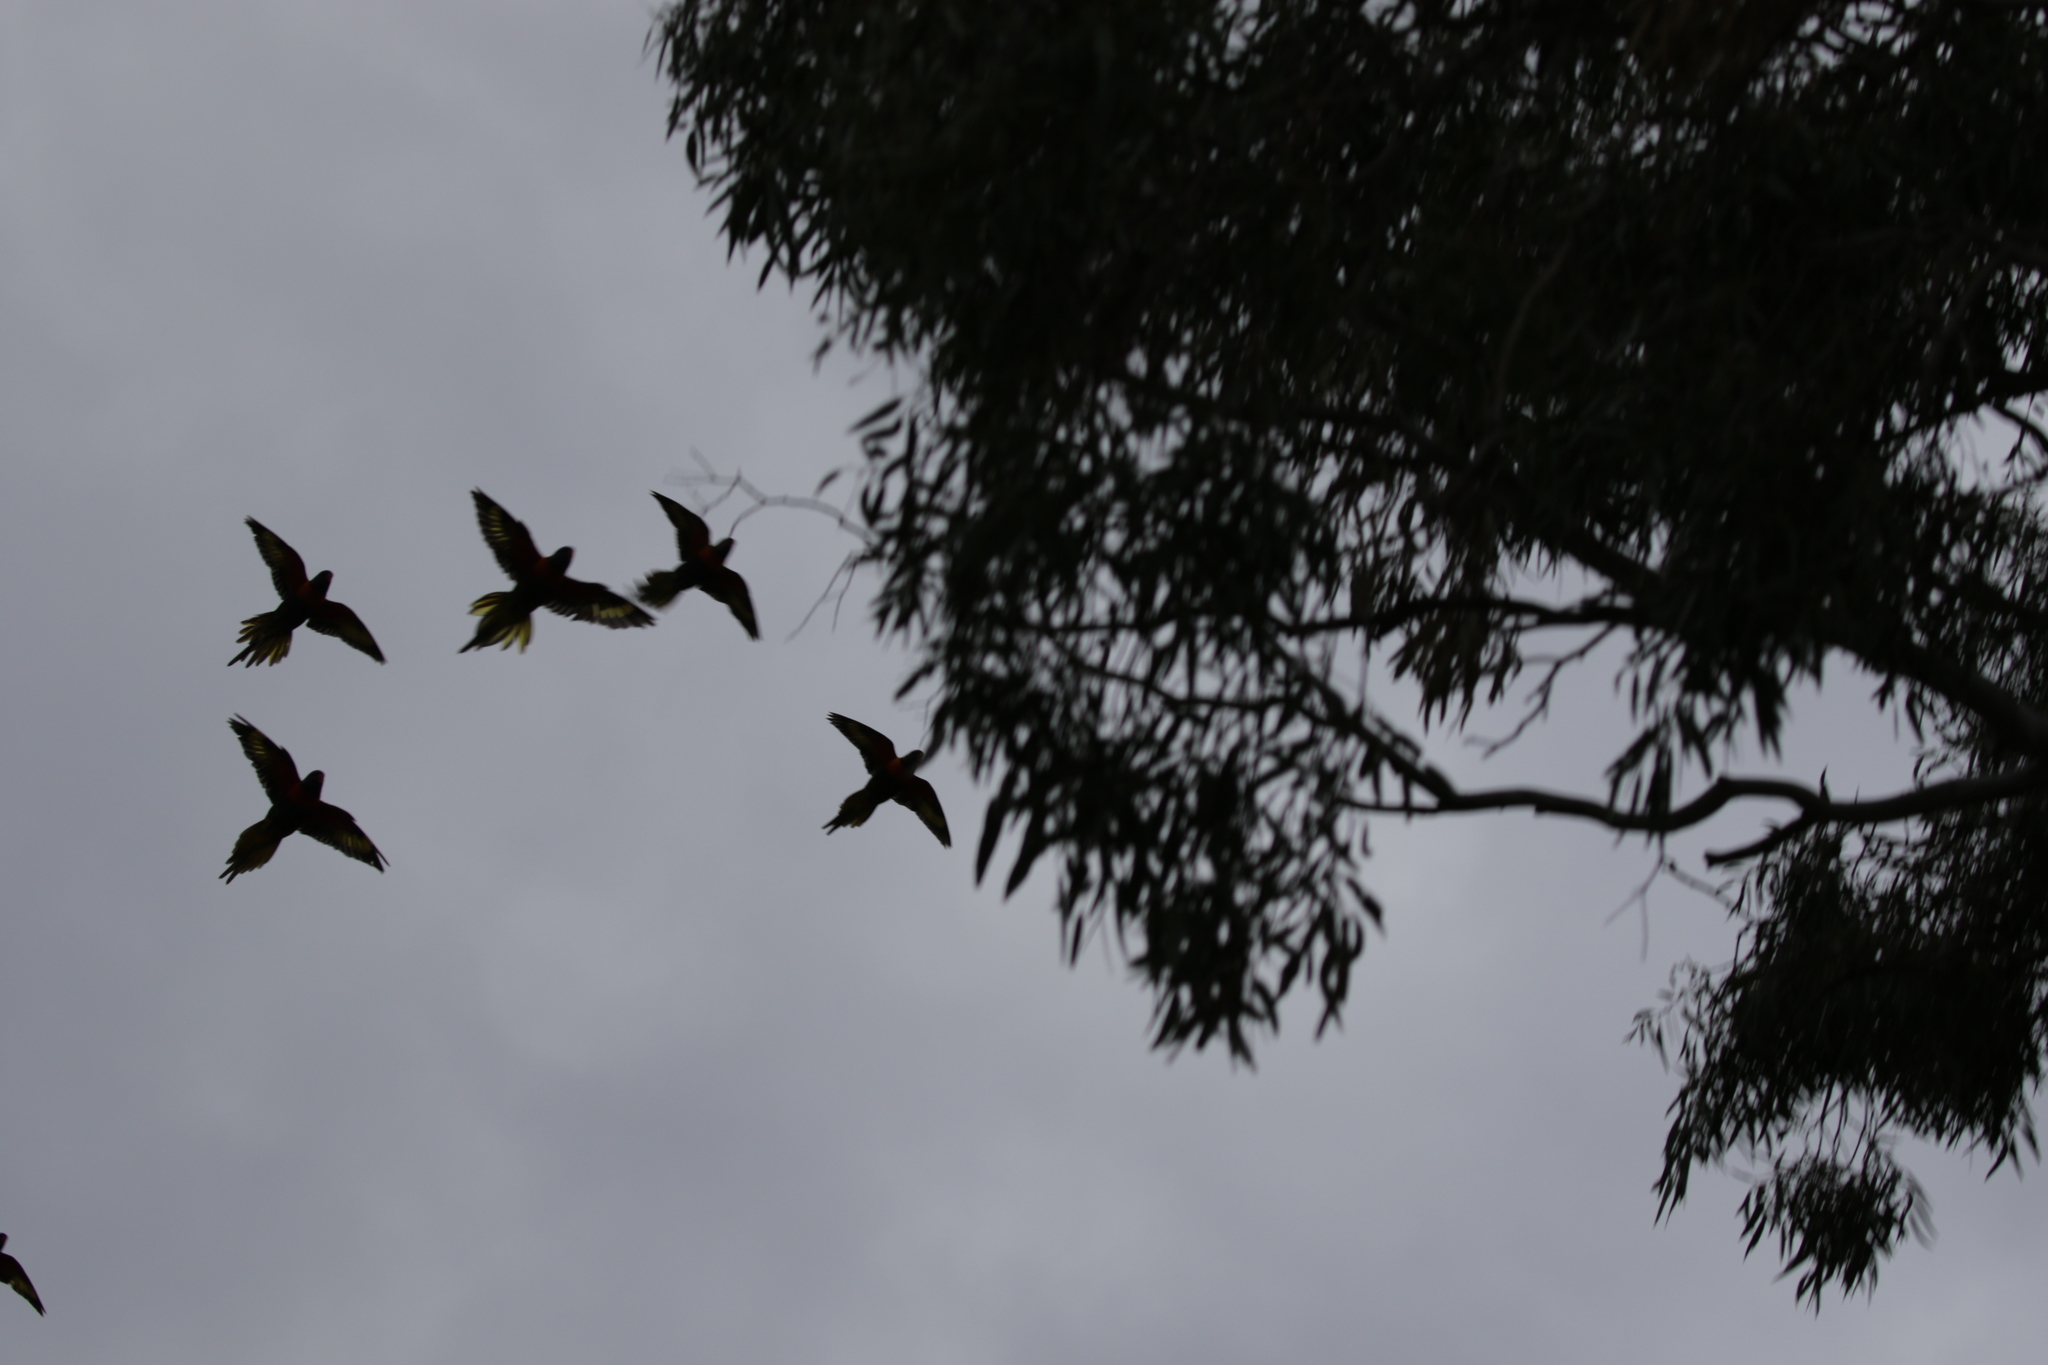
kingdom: Animalia
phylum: Chordata
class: Aves
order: Psittaciformes
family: Psittacidae
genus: Trichoglossus
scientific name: Trichoglossus haematodus
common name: Coconut lorikeet
